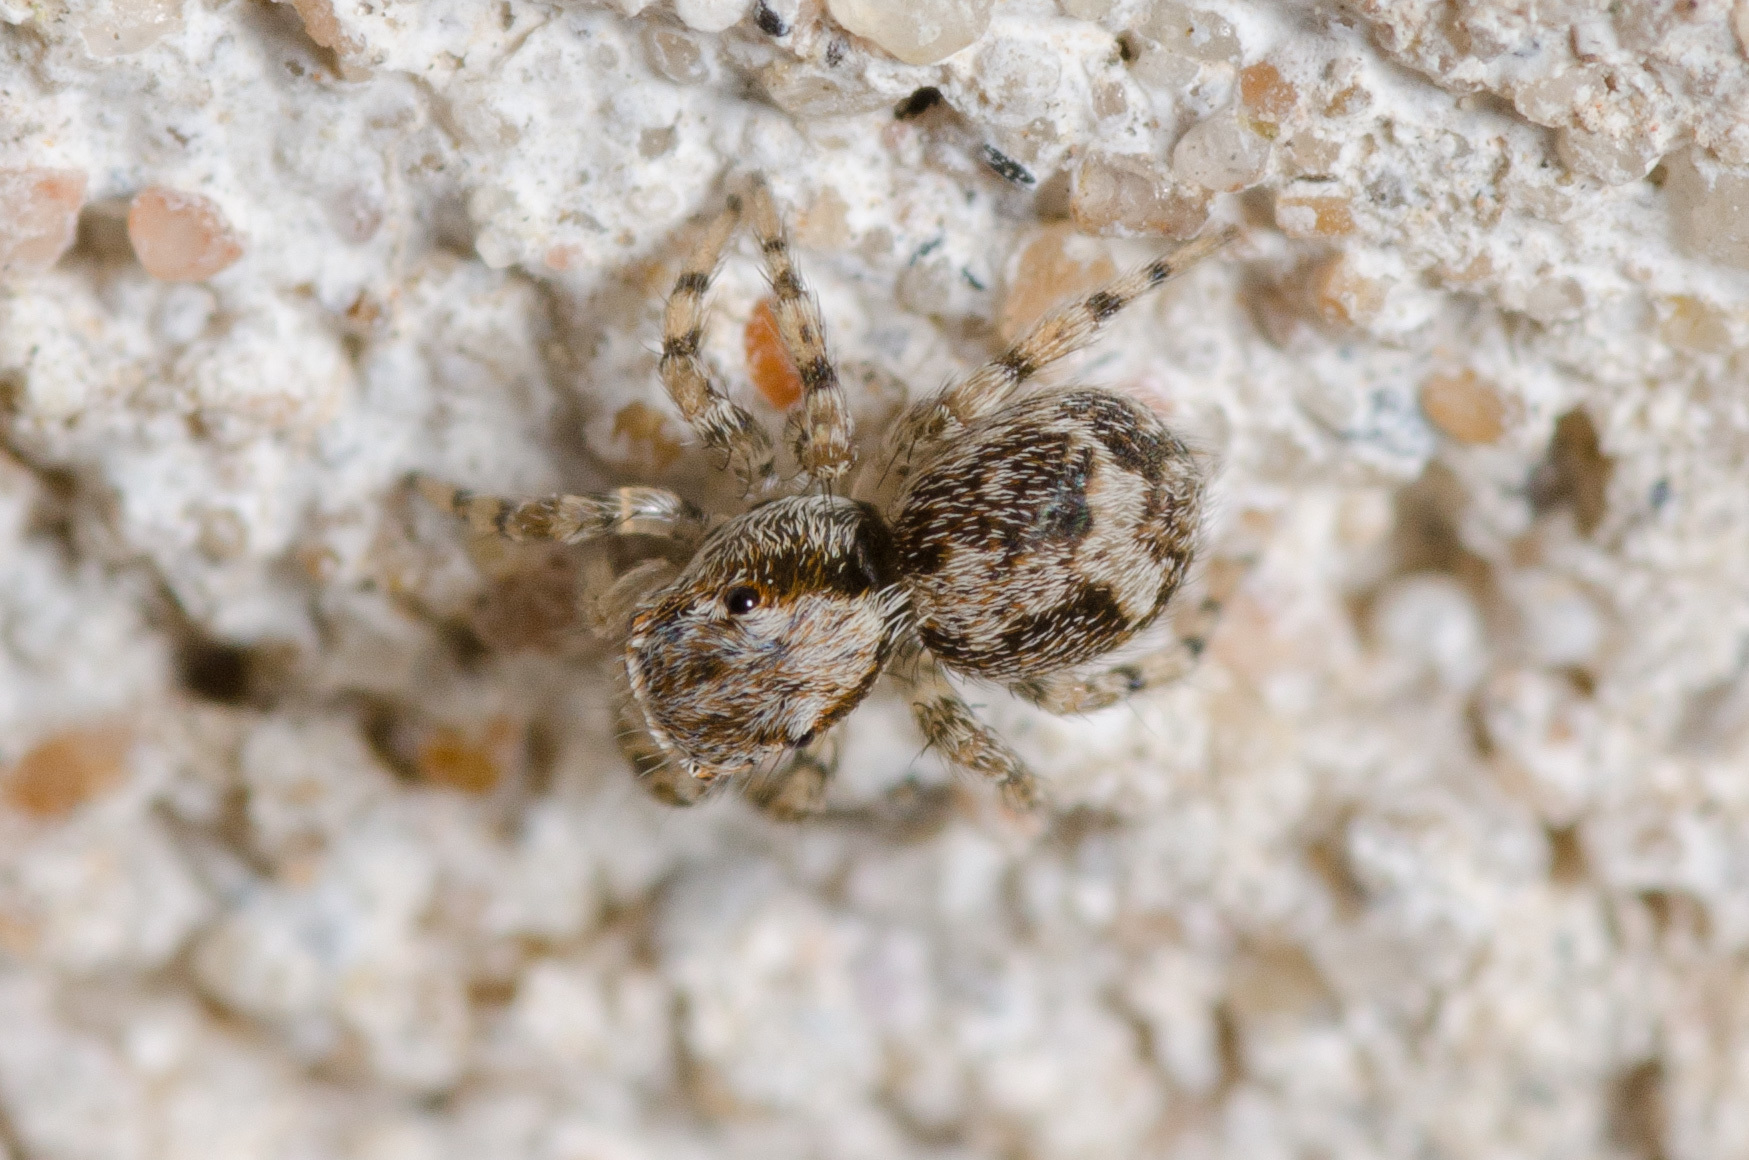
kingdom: Animalia
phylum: Arthropoda
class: Arachnida
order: Araneae
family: Salticidae
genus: Naphrys
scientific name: Naphrys pulex
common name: Flea jumping spider
